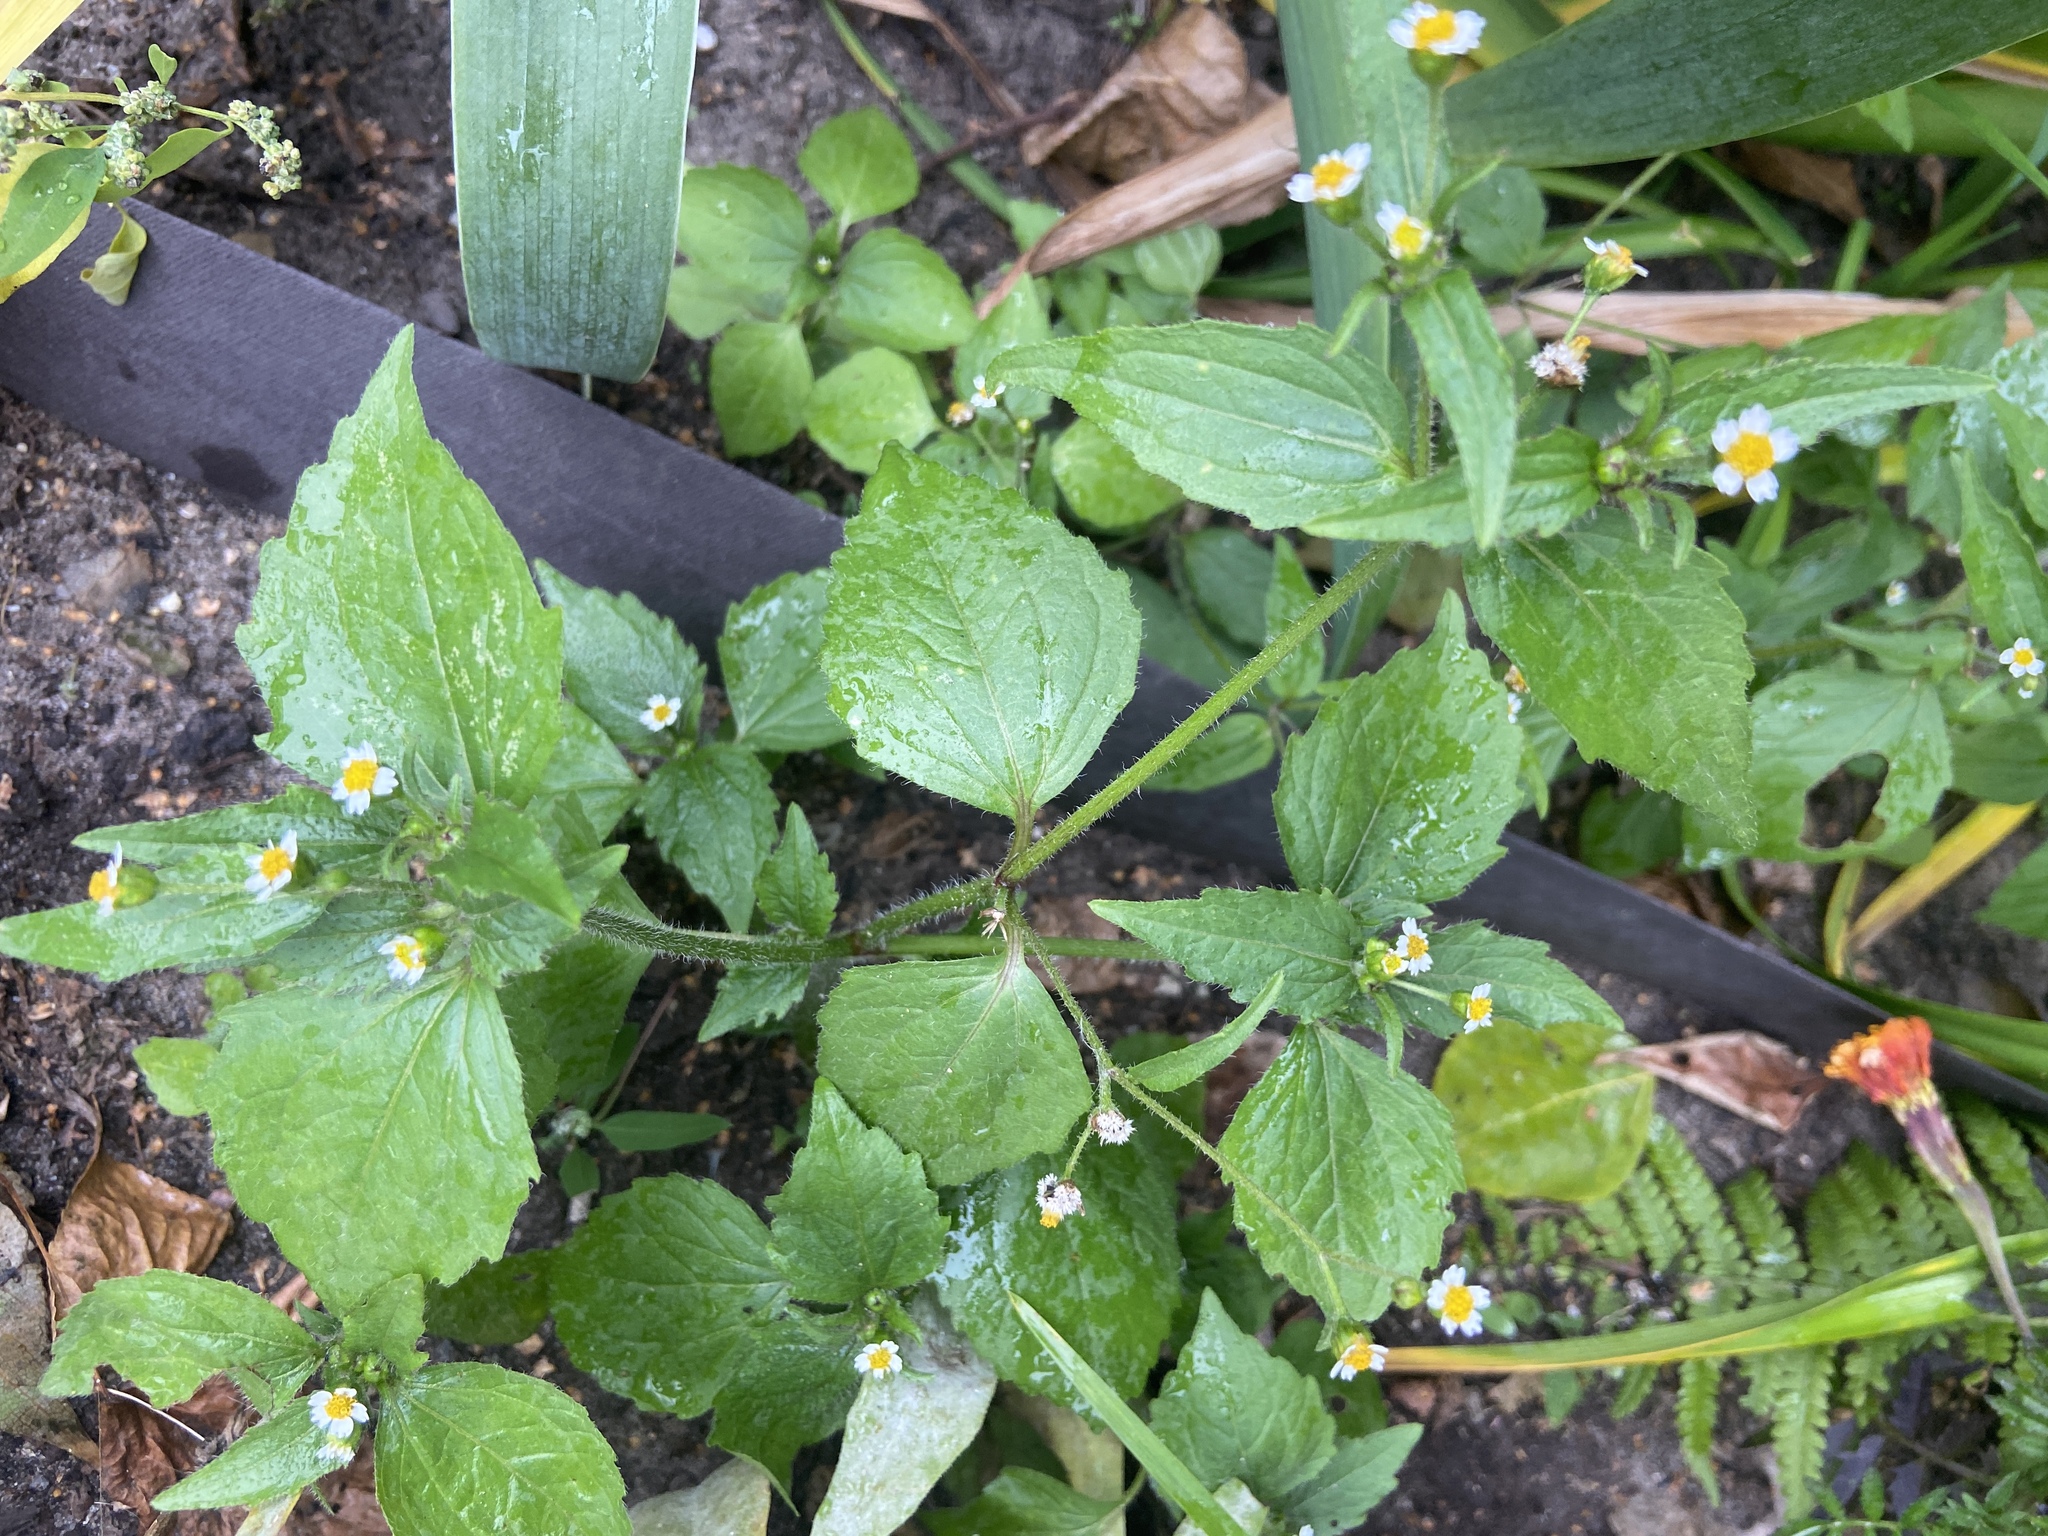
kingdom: Plantae
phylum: Tracheophyta
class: Magnoliopsida
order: Asterales
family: Asteraceae
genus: Galinsoga
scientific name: Galinsoga quadriradiata
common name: Shaggy soldier
